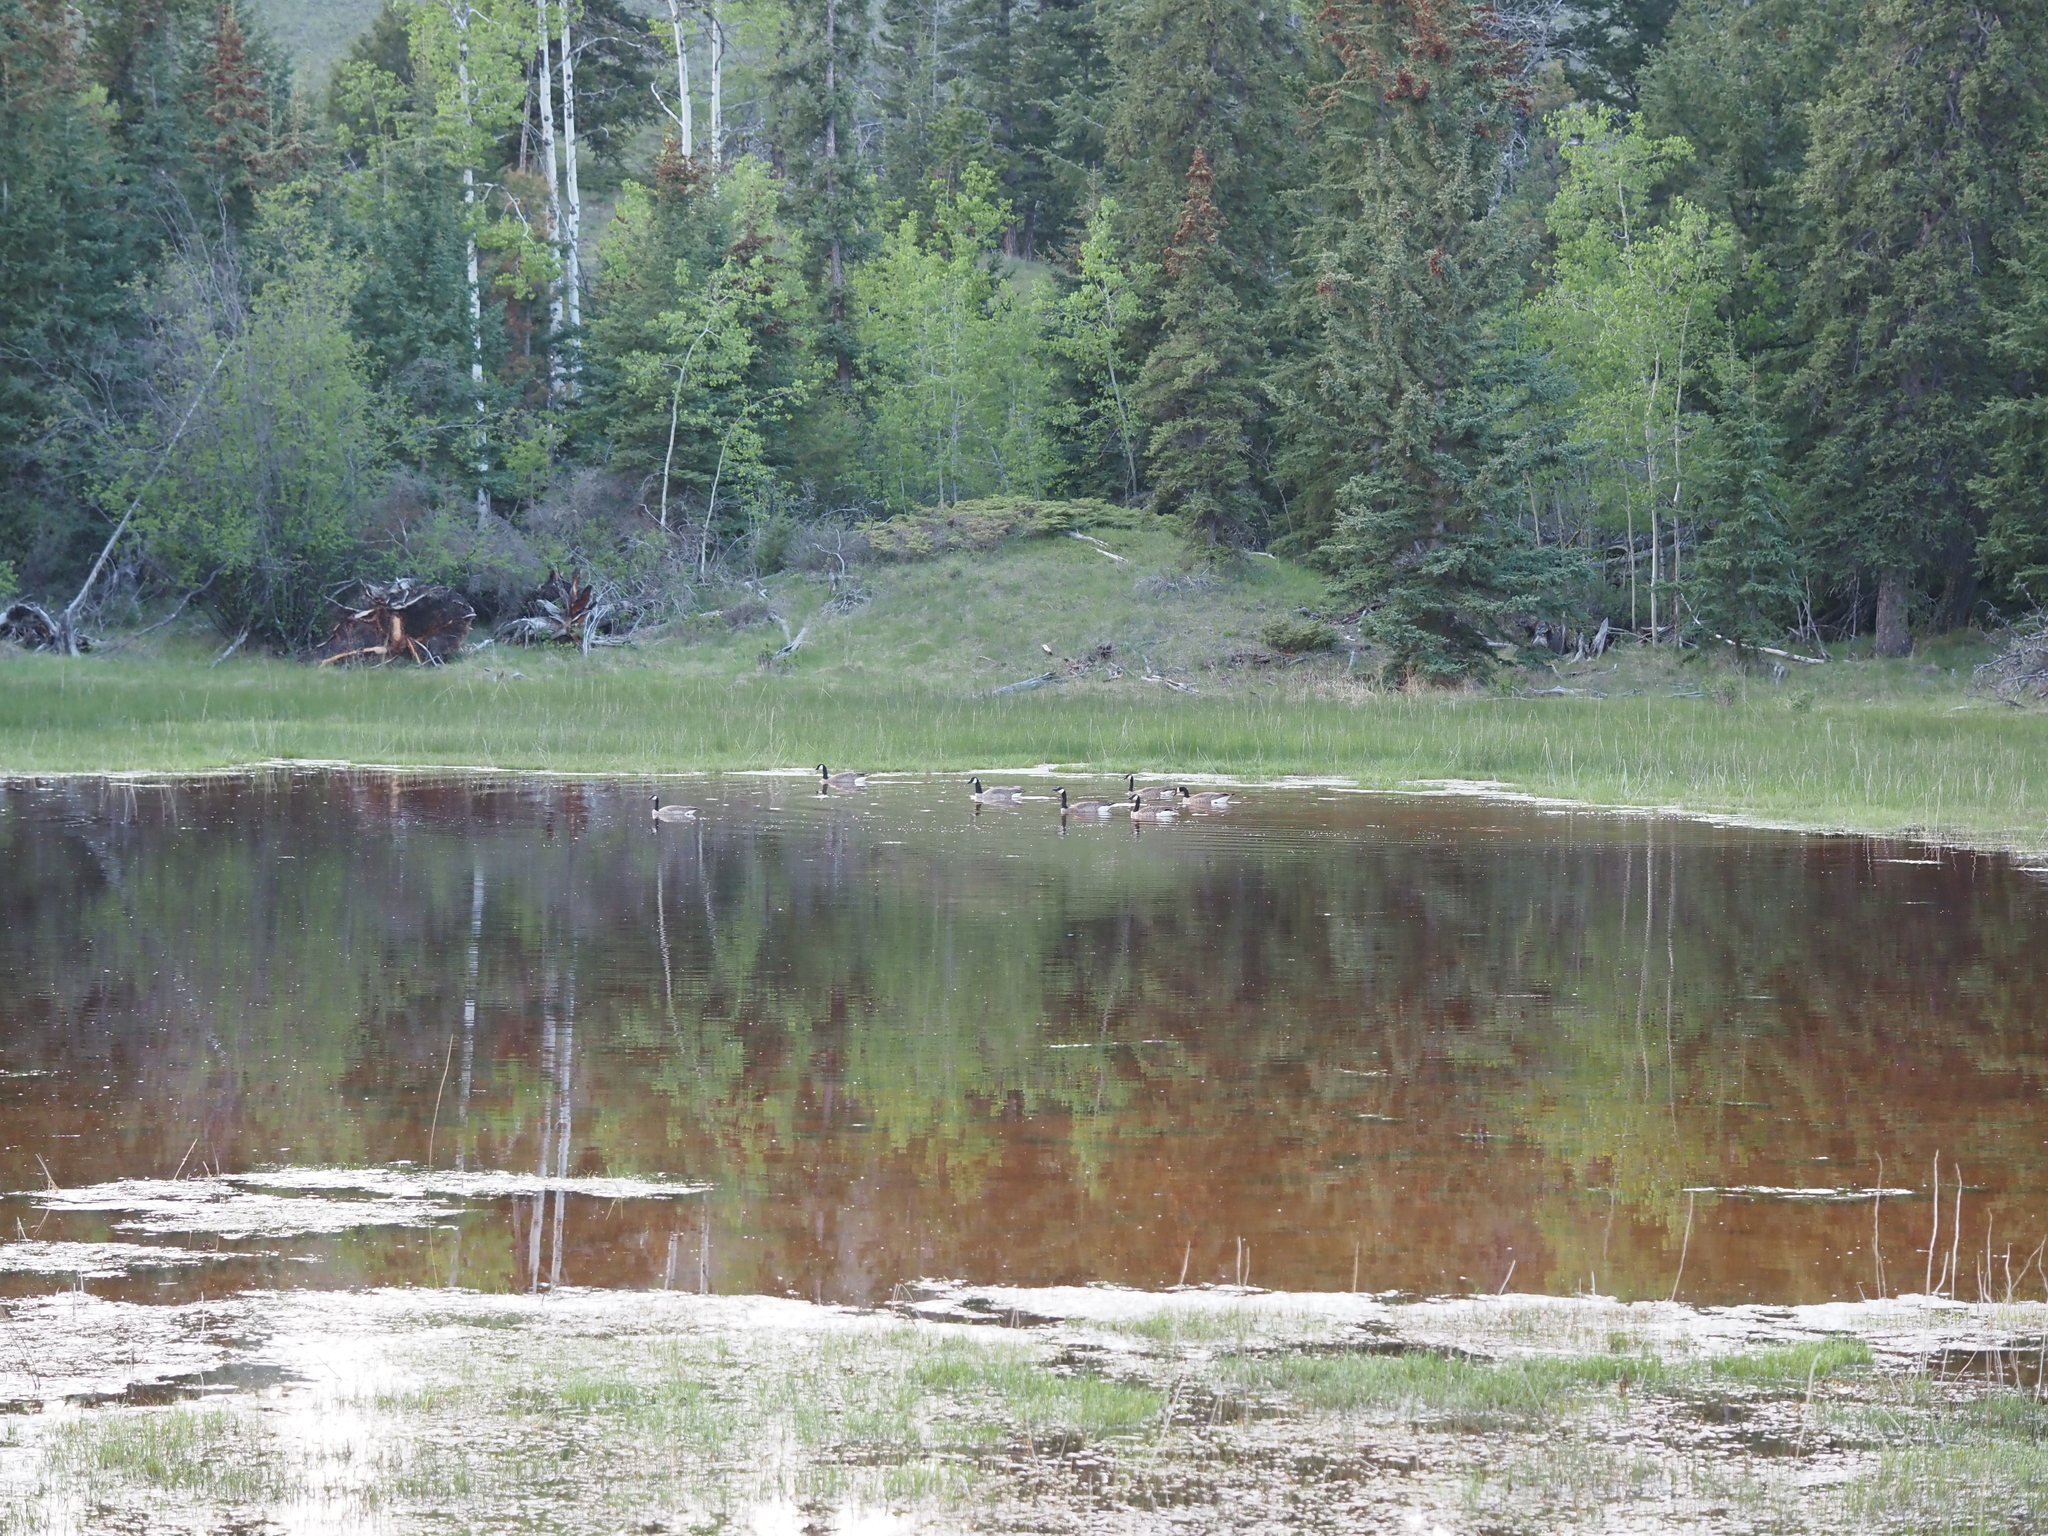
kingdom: Animalia
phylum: Chordata
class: Aves
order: Anseriformes
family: Anatidae
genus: Branta
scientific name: Branta canadensis
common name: Canada goose
